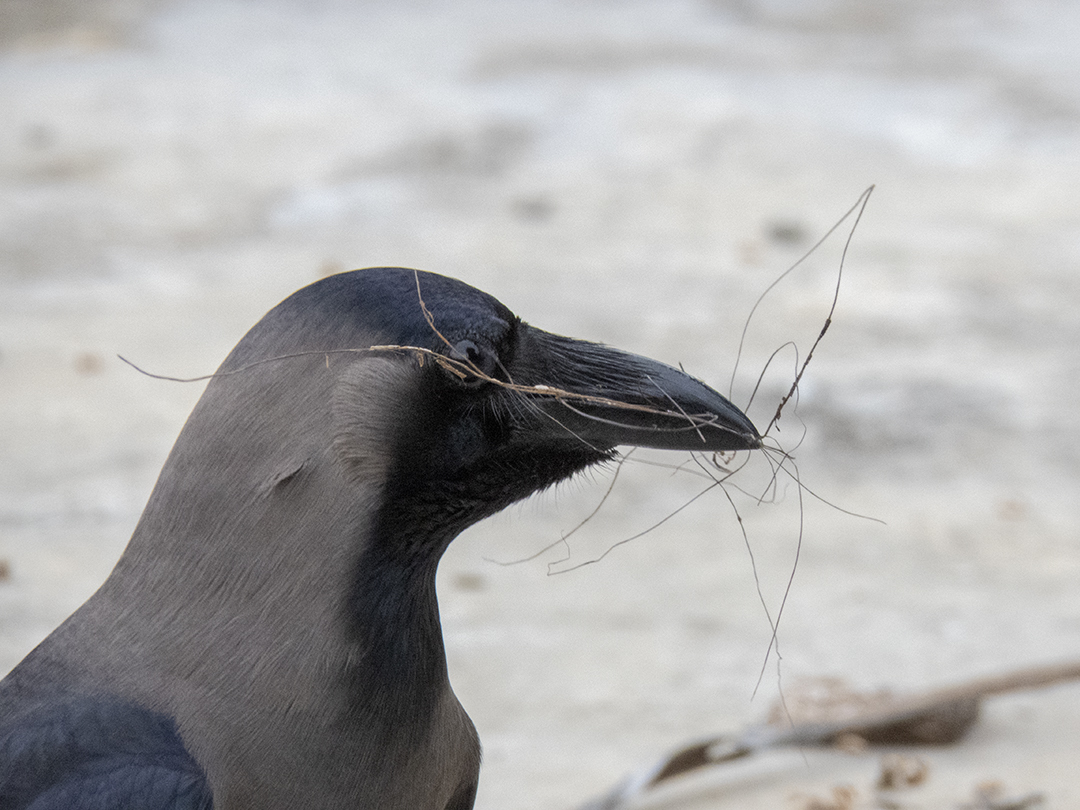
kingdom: Animalia
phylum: Chordata
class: Aves
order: Passeriformes
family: Corvidae
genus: Corvus
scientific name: Corvus splendens
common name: House crow
